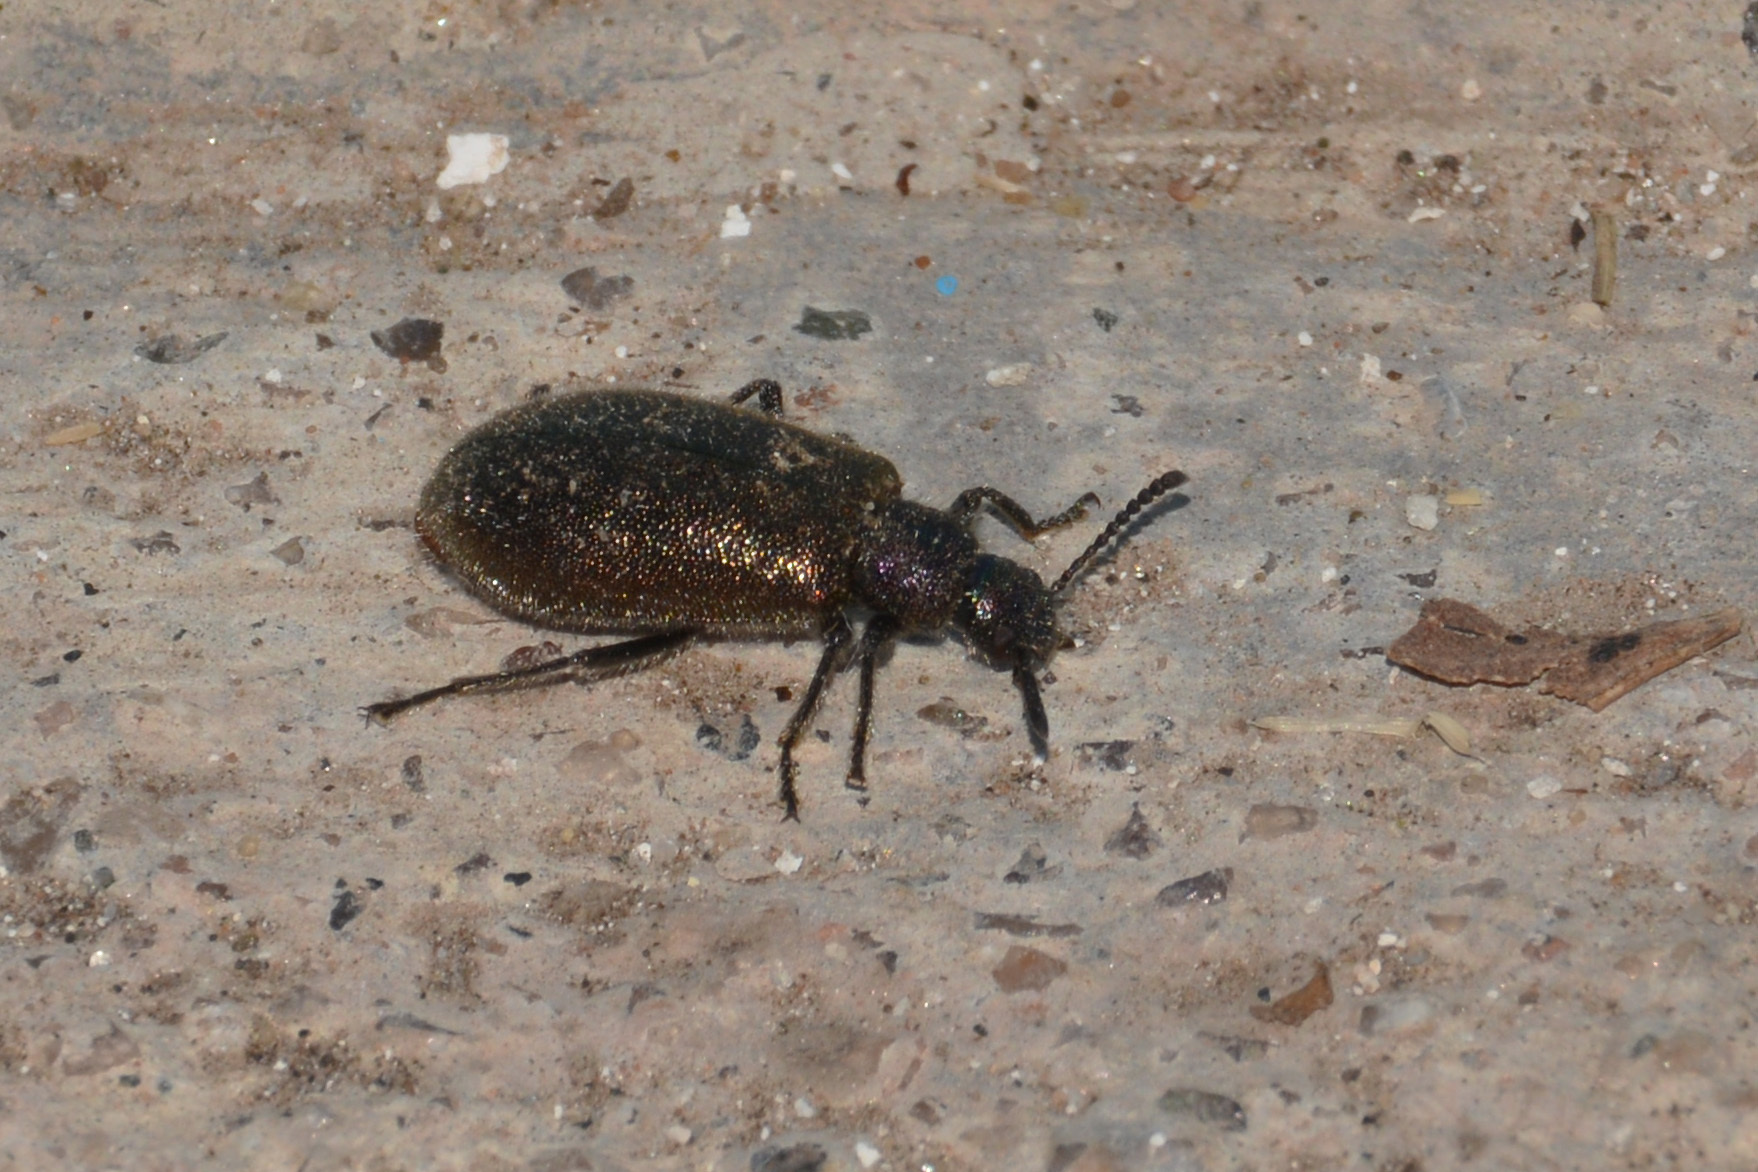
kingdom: Animalia
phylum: Arthropoda
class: Insecta
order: Coleoptera
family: Tenebrionidae
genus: Lagria
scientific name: Lagria villosa
